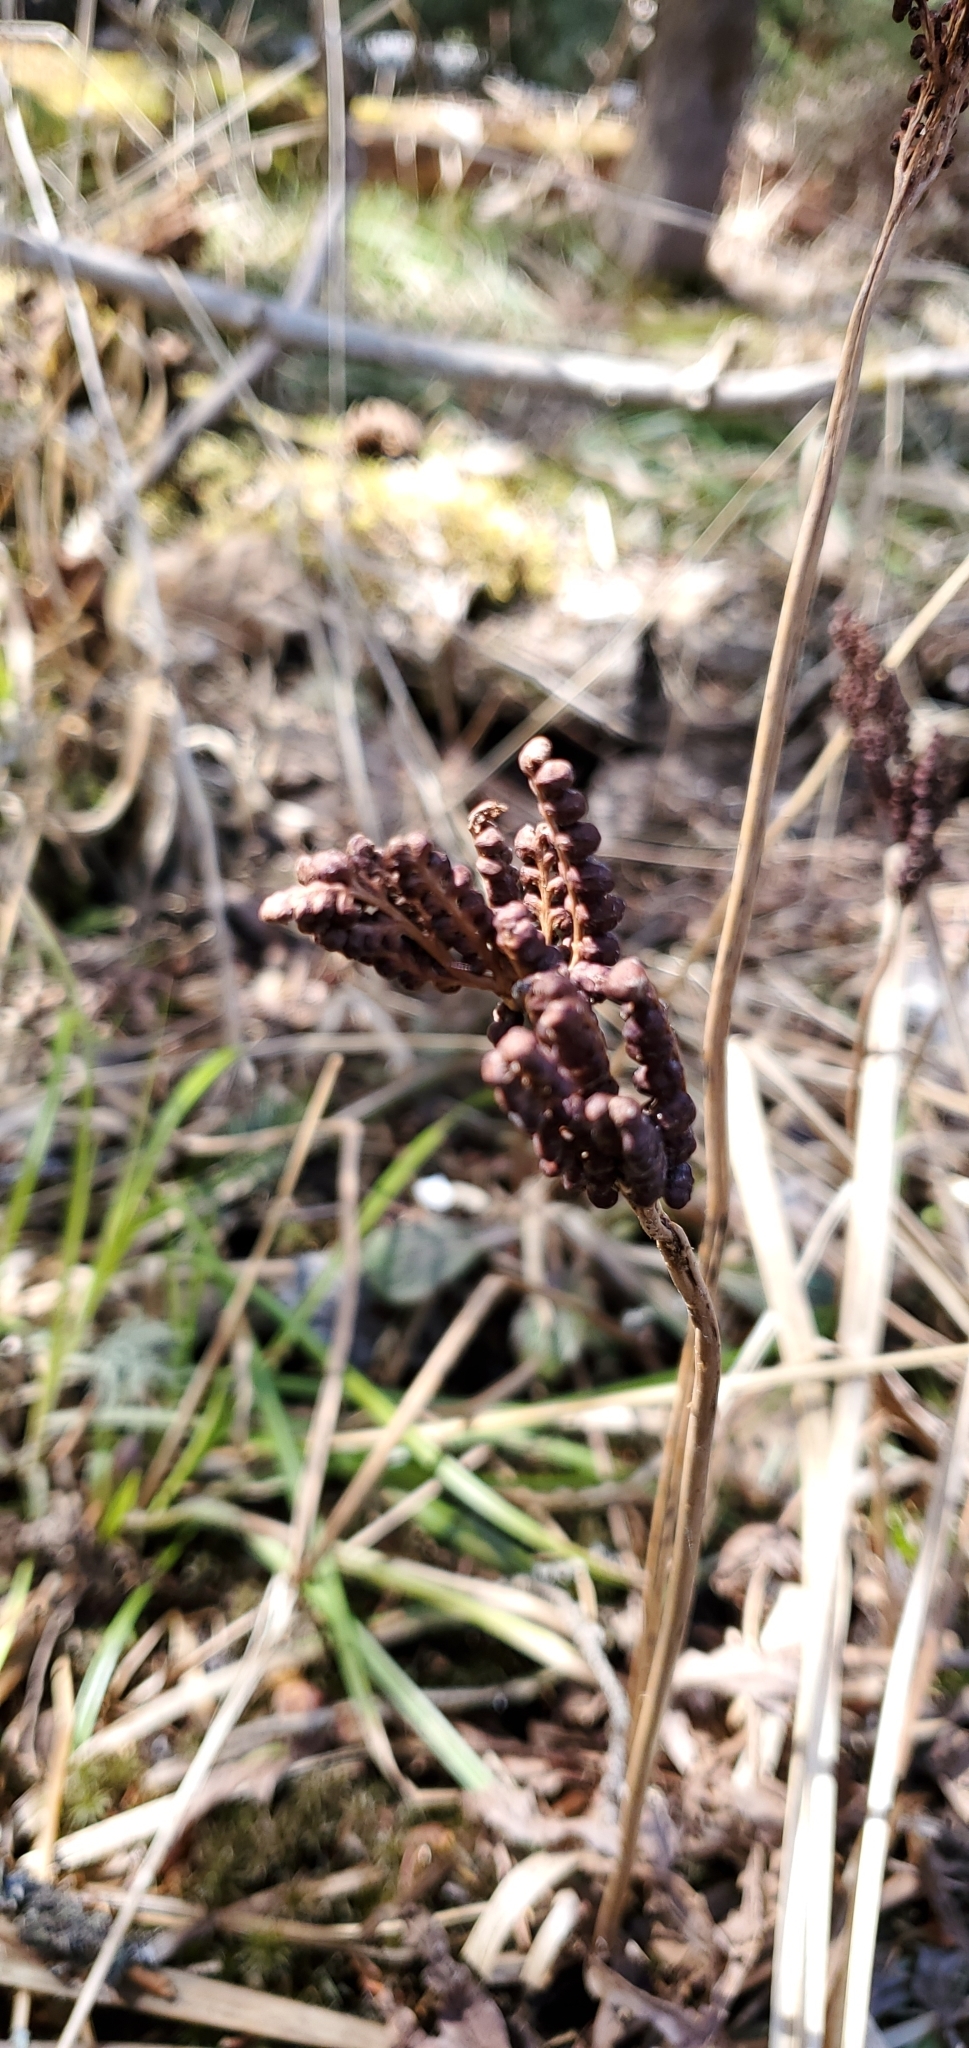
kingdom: Plantae
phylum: Tracheophyta
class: Polypodiopsida
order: Polypodiales
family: Onocleaceae
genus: Onoclea
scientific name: Onoclea sensibilis
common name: Sensitive fern
